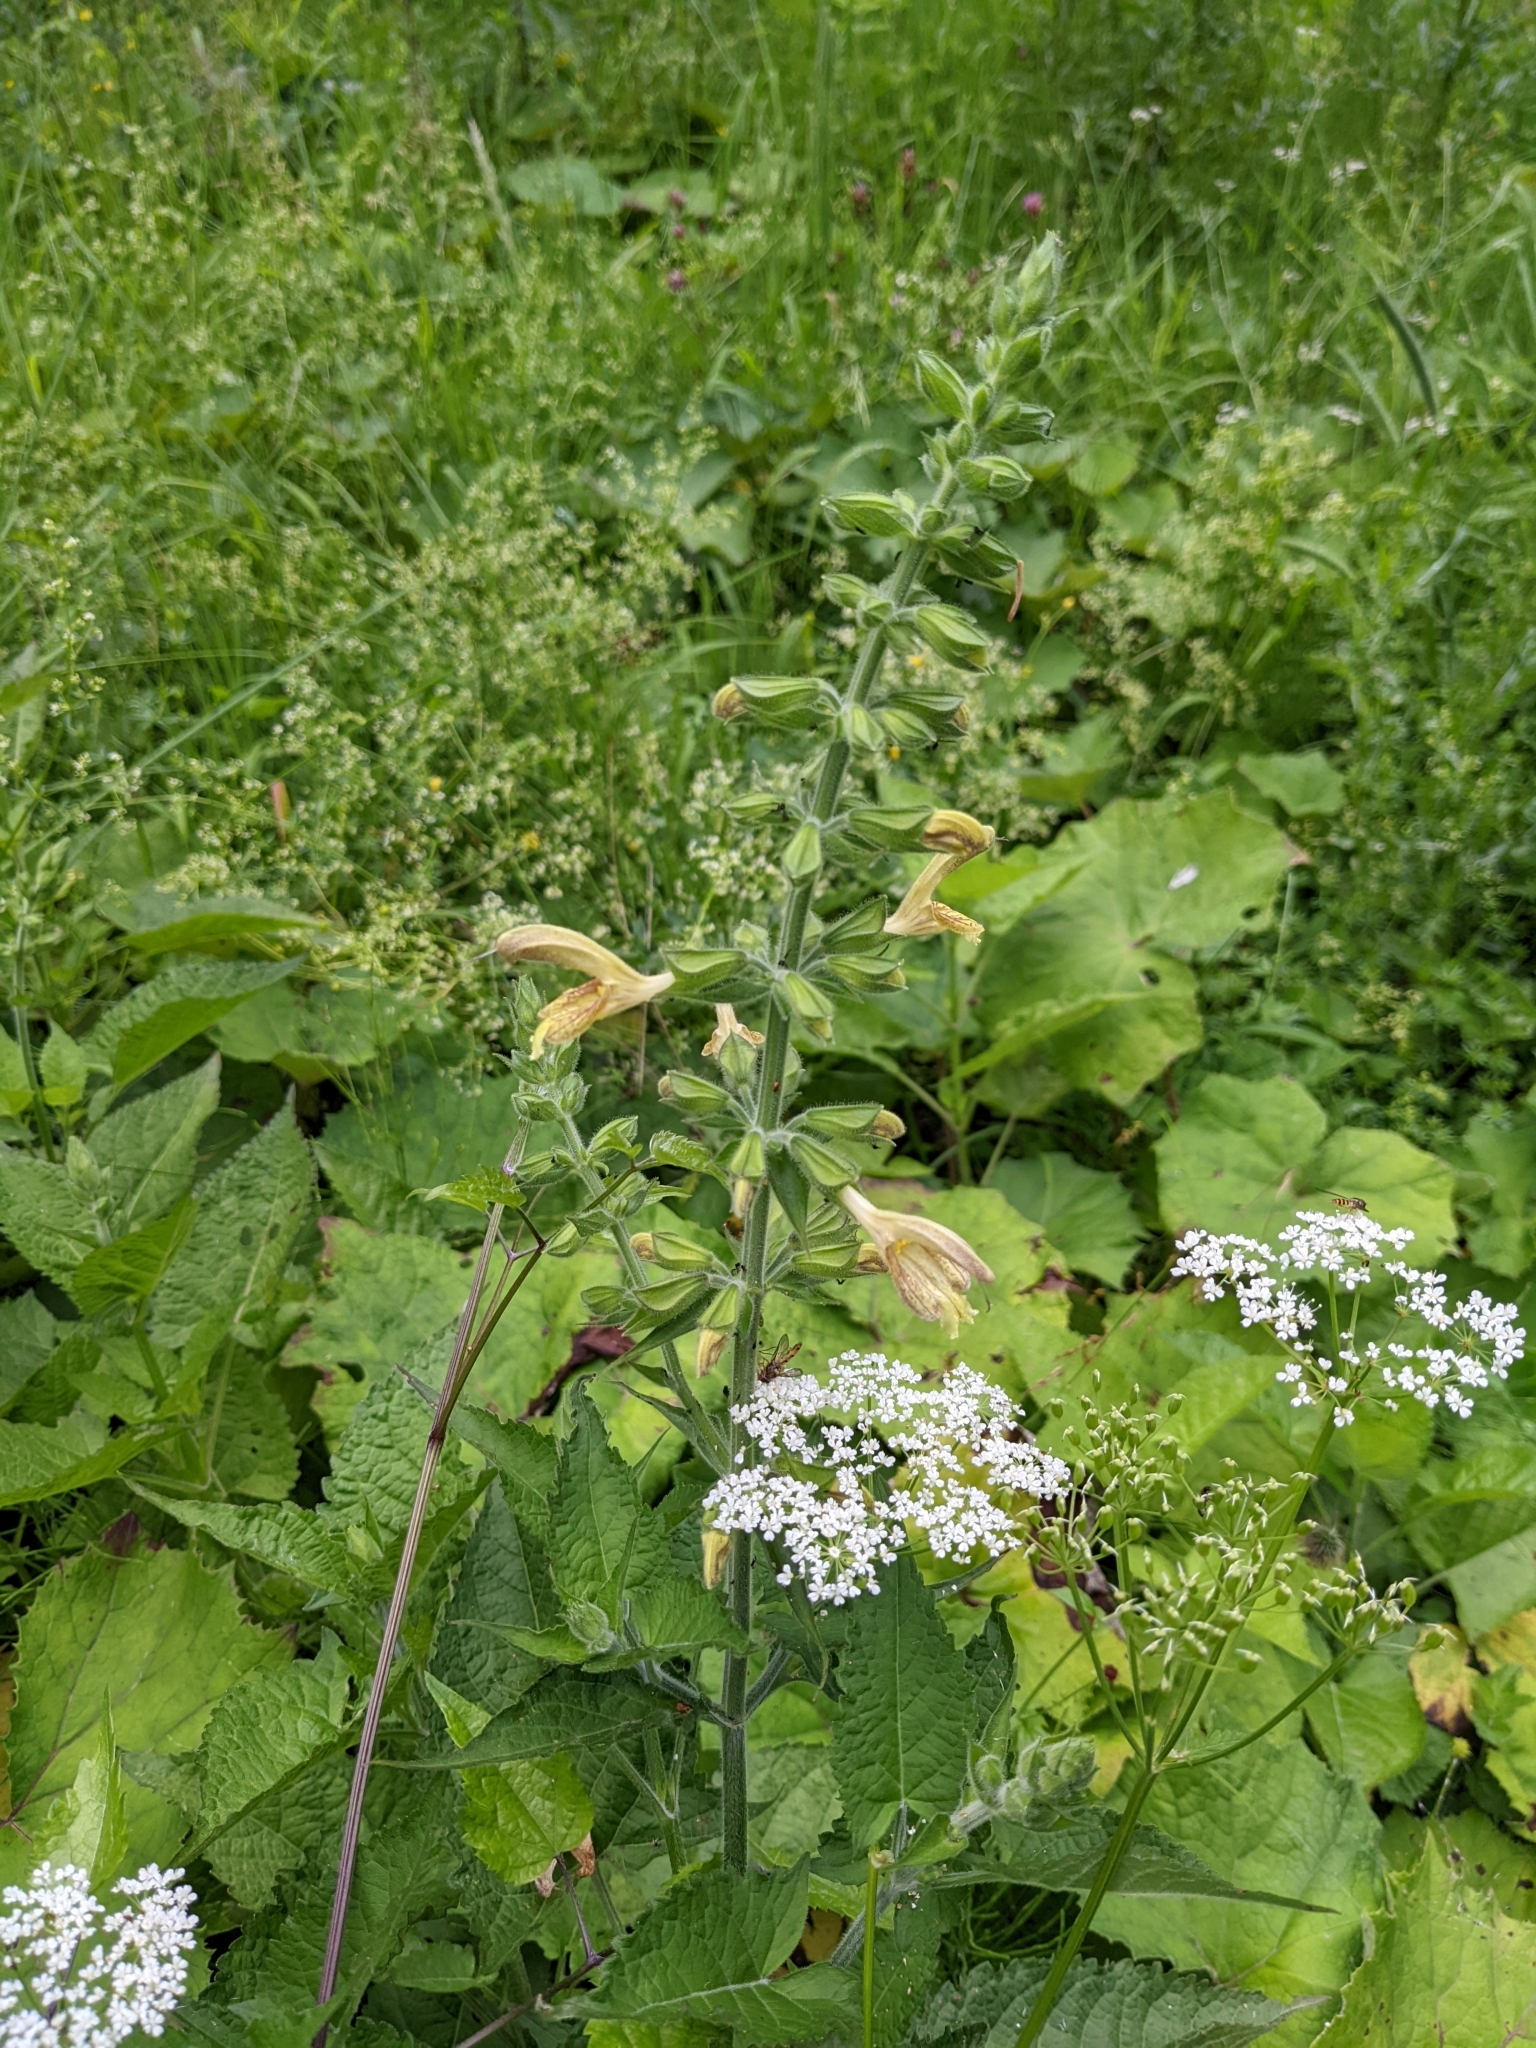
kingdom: Plantae
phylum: Tracheophyta
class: Magnoliopsida
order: Lamiales
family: Lamiaceae
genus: Salvia
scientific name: Salvia glutinosa
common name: Sticky clary
